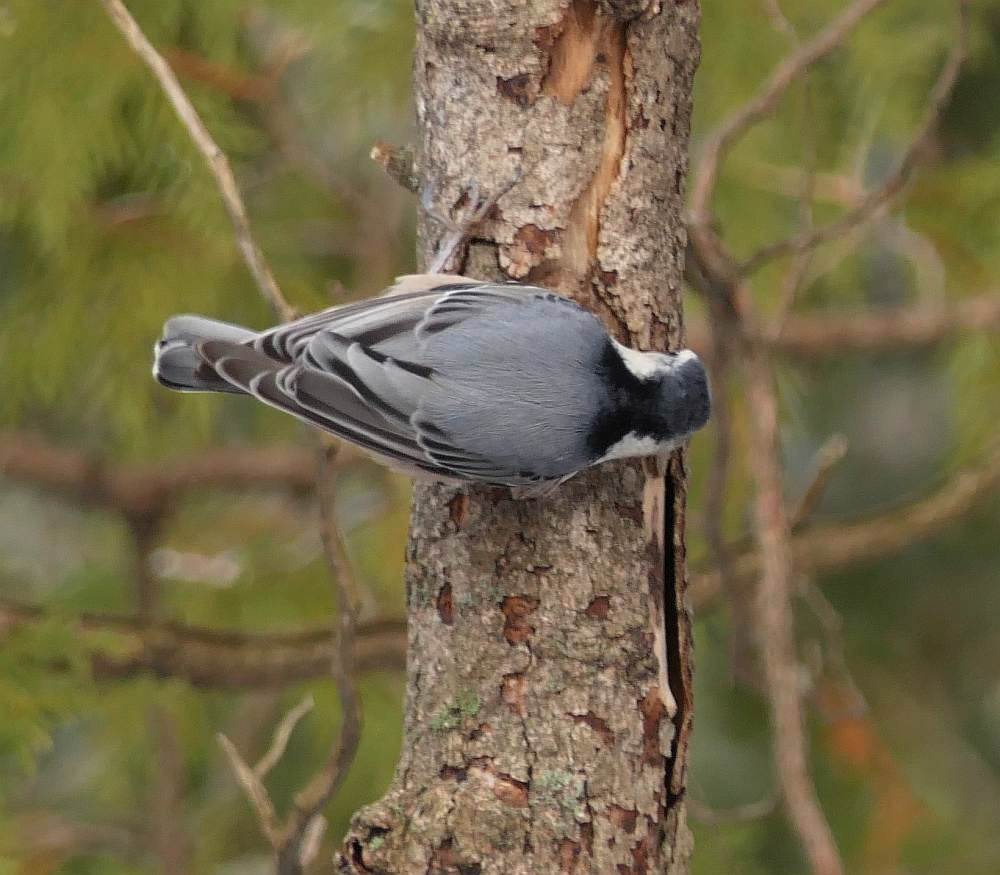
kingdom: Animalia
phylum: Chordata
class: Aves
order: Passeriformes
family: Sittidae
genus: Sitta
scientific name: Sitta carolinensis
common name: White-breasted nuthatch
